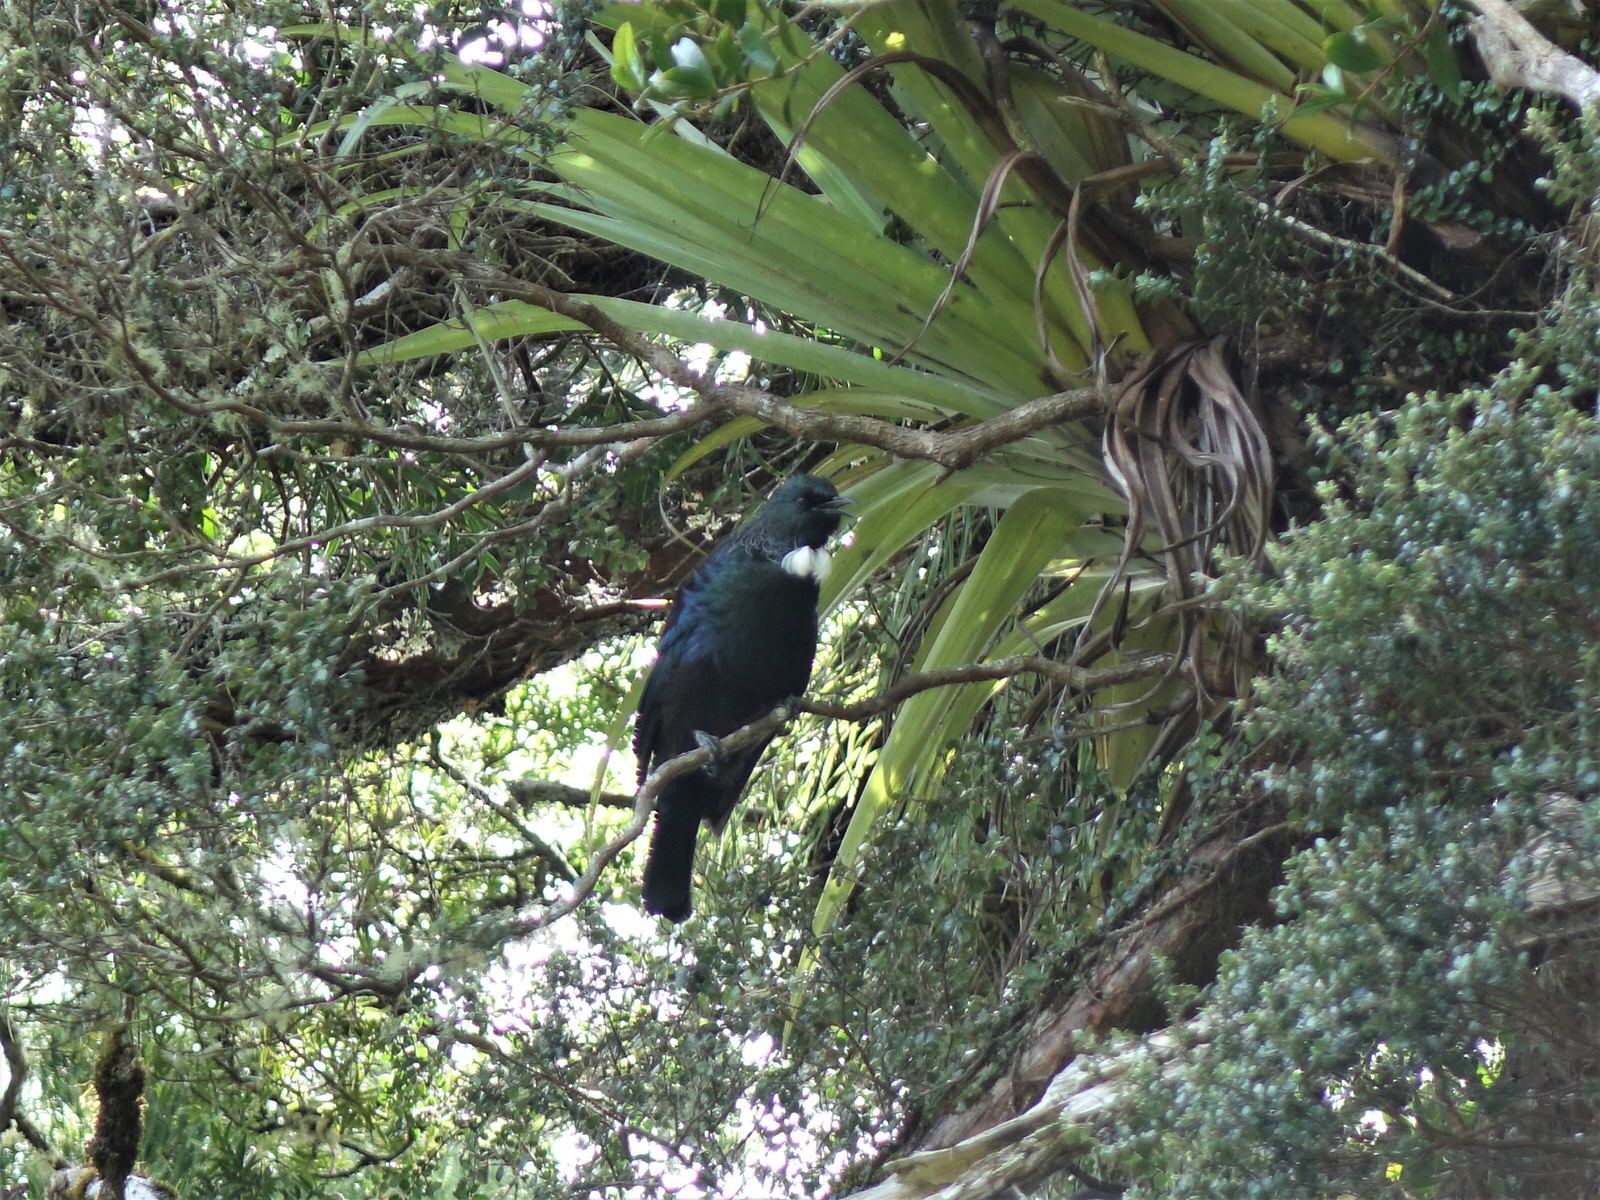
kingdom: Animalia
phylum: Chordata
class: Aves
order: Passeriformes
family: Meliphagidae
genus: Prosthemadera
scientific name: Prosthemadera novaeseelandiae
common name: Tui
